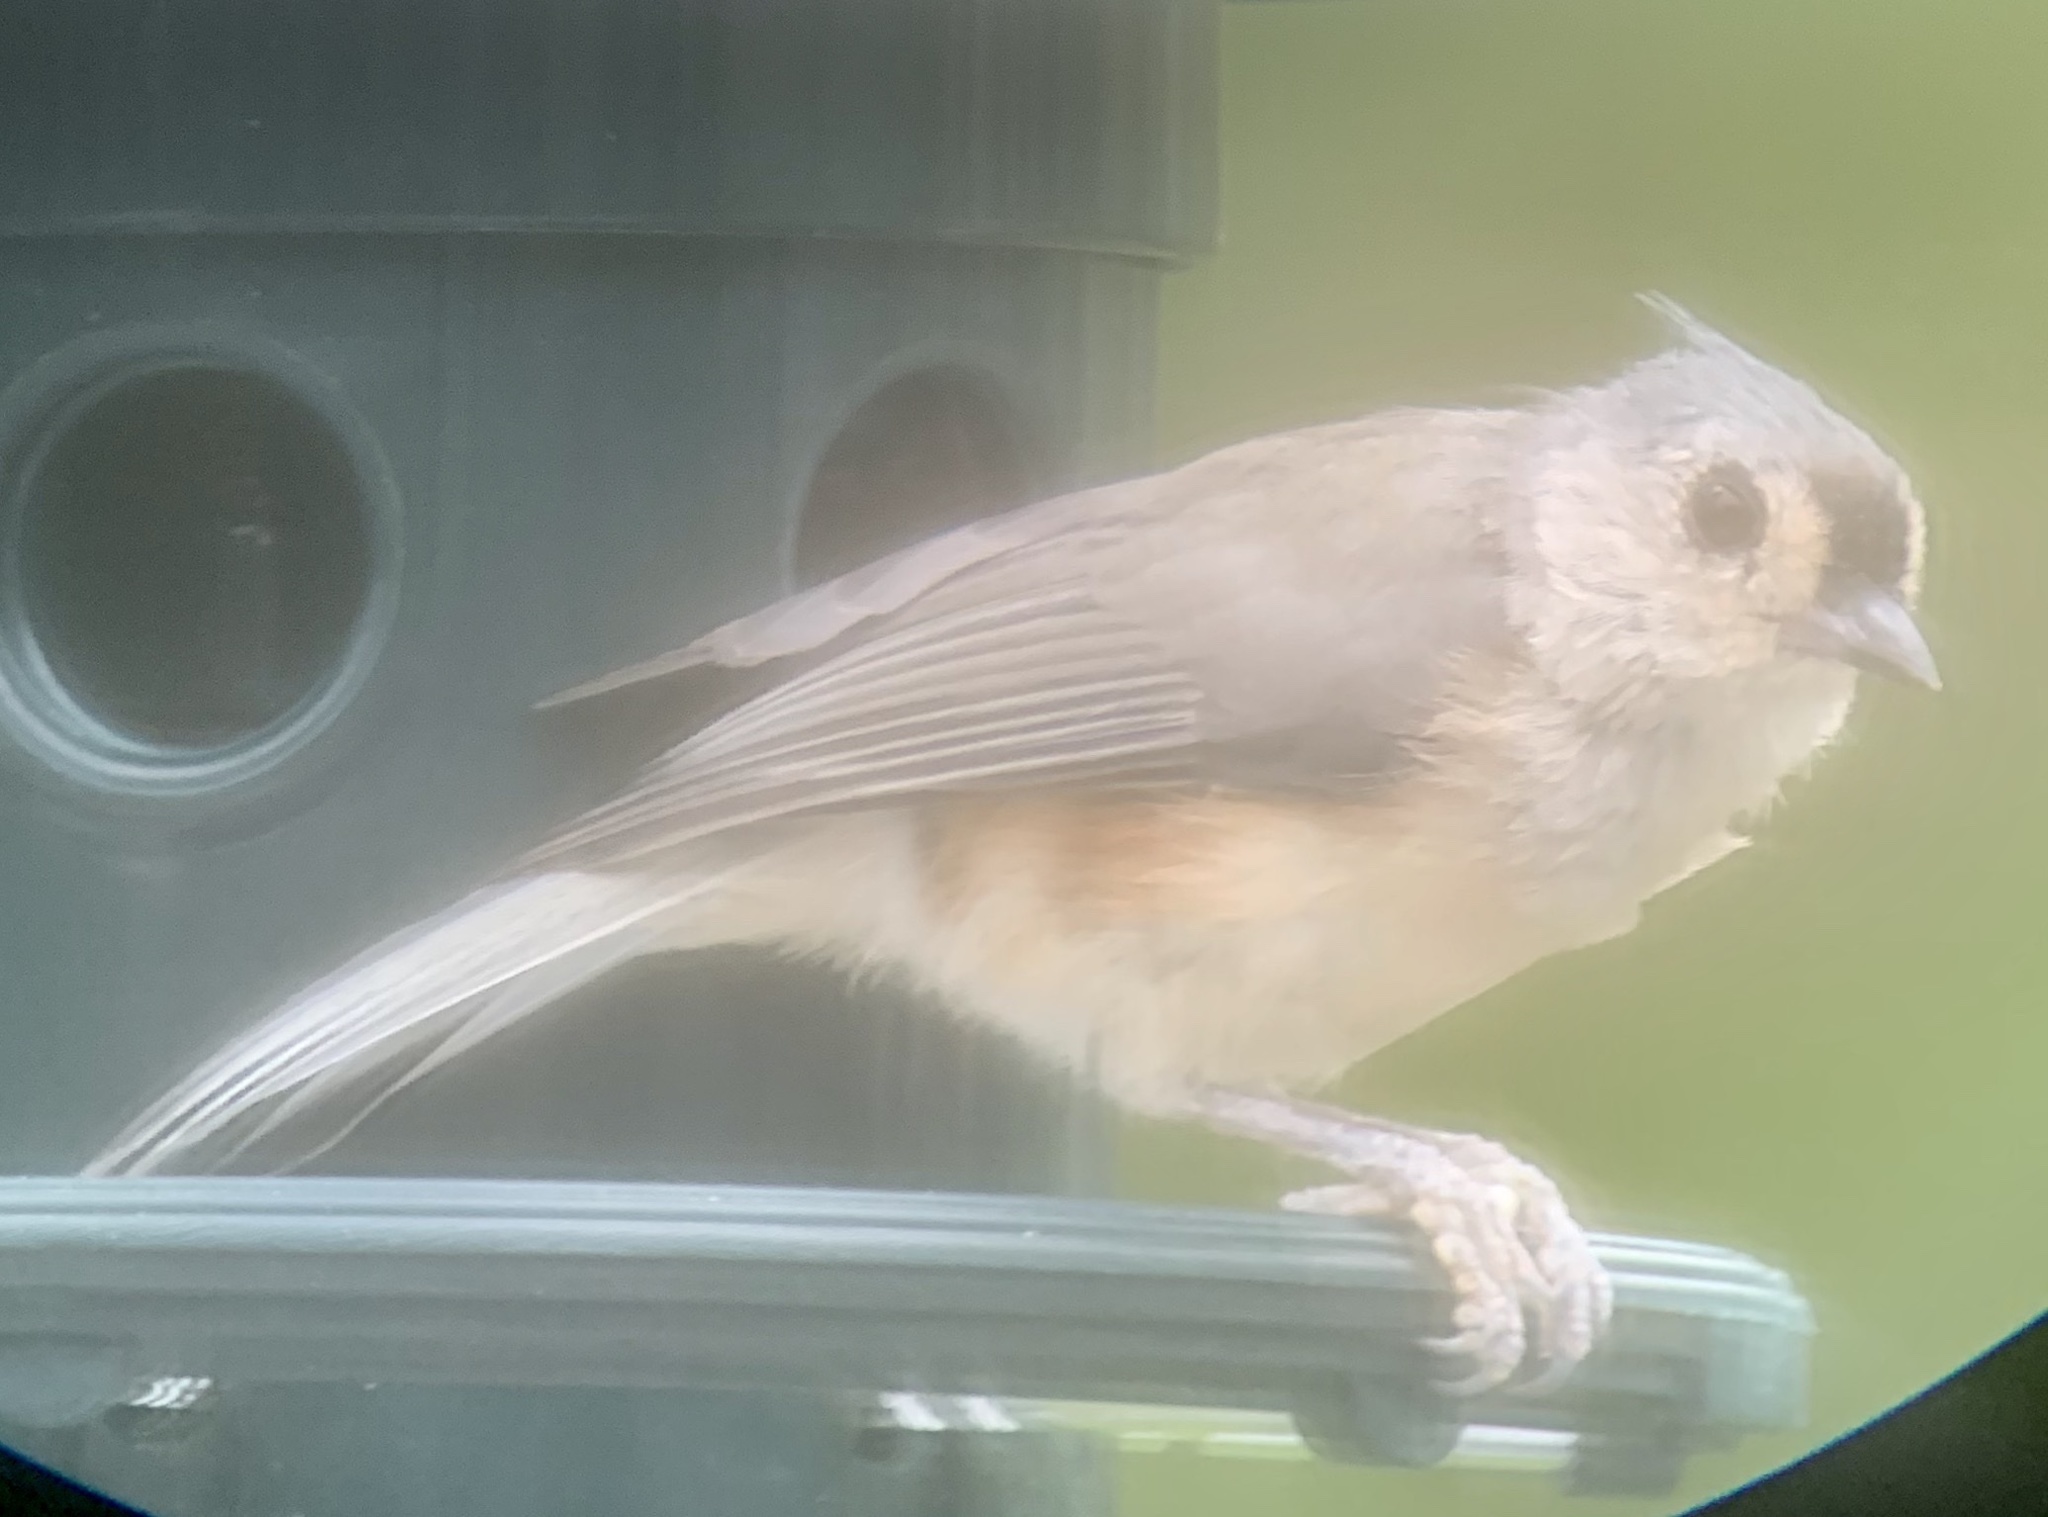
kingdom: Animalia
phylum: Chordata
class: Aves
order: Passeriformes
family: Paridae
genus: Baeolophus
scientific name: Baeolophus bicolor
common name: Tufted titmouse
